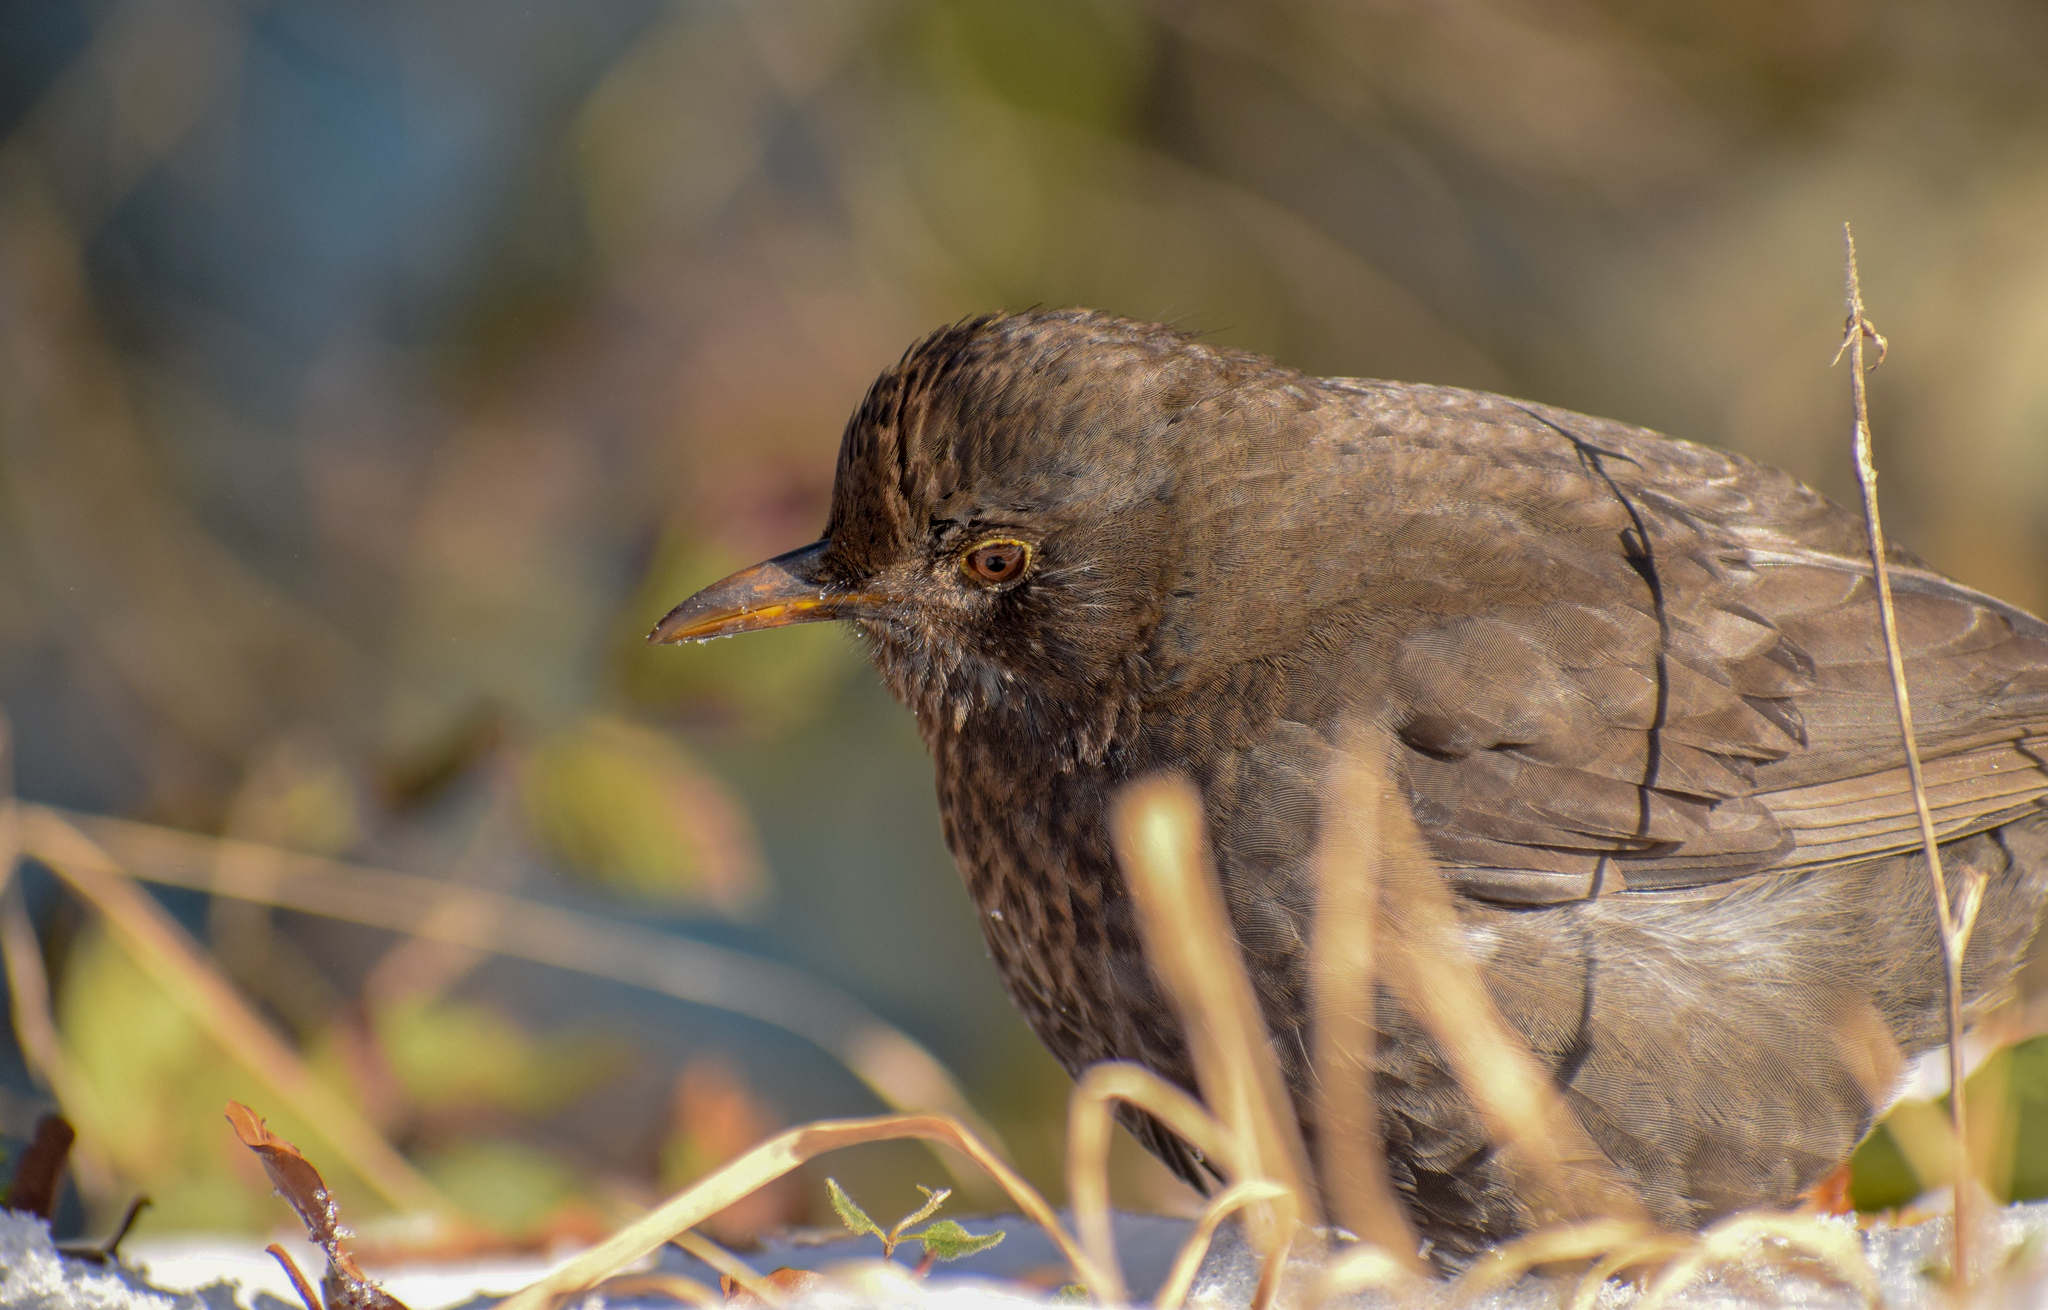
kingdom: Animalia
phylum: Chordata
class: Aves
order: Passeriformes
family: Turdidae
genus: Turdus
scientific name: Turdus merula
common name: Common blackbird
